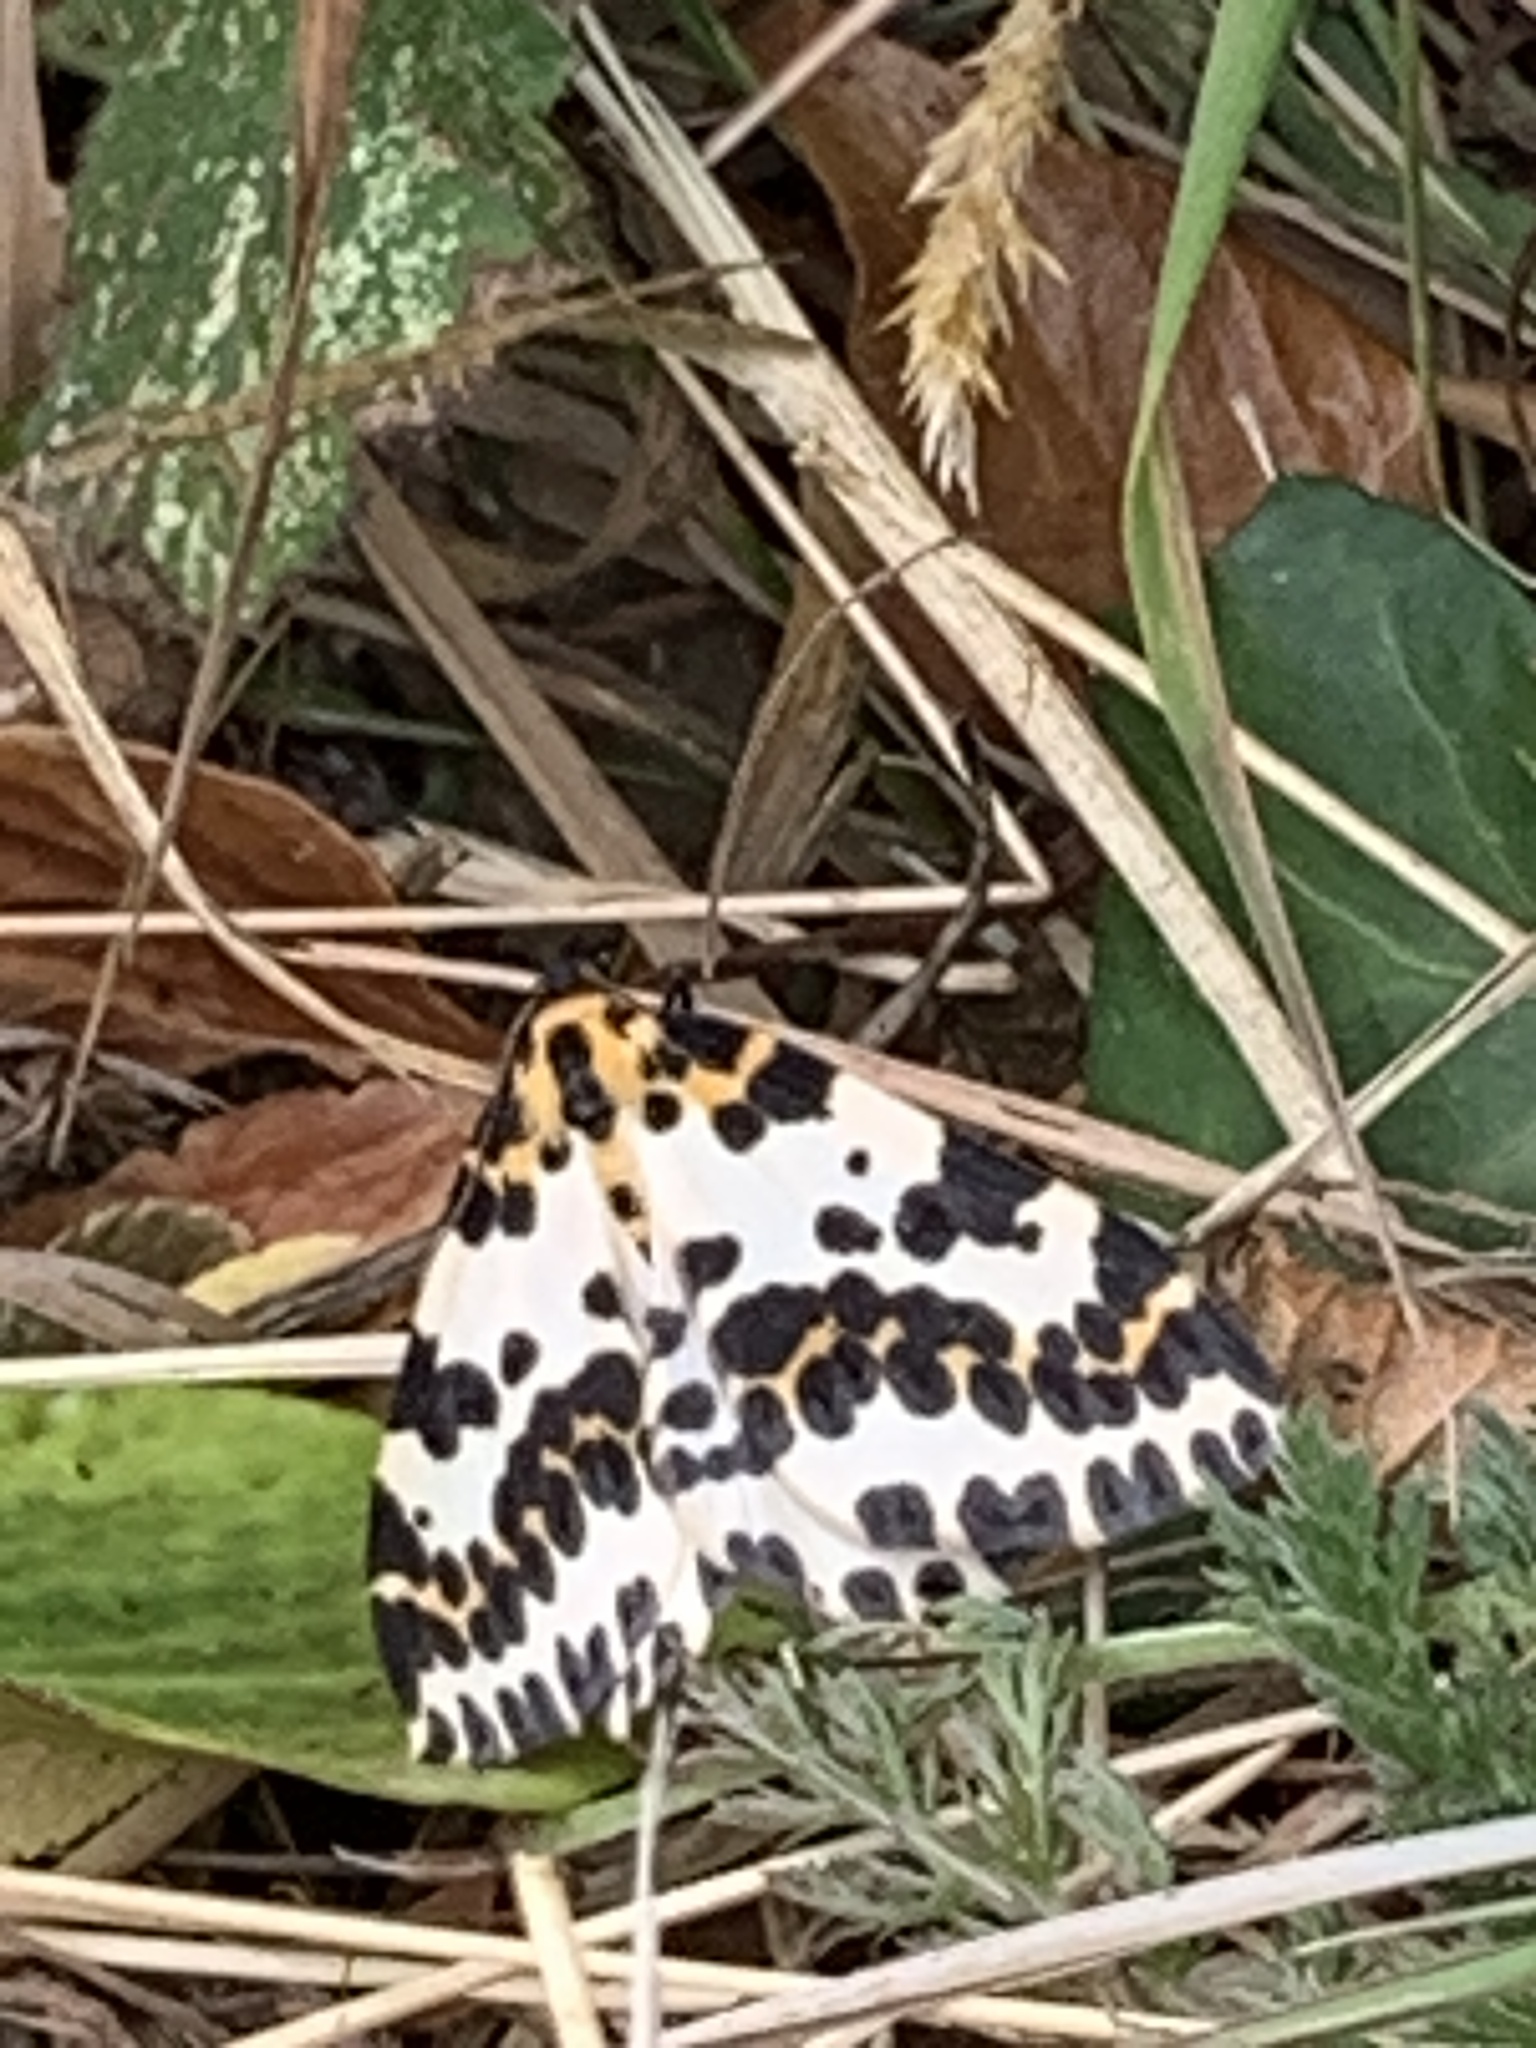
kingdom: Animalia
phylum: Arthropoda
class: Insecta
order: Lepidoptera
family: Geometridae
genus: Abraxas
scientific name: Abraxas grossulariata
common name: Magpie
